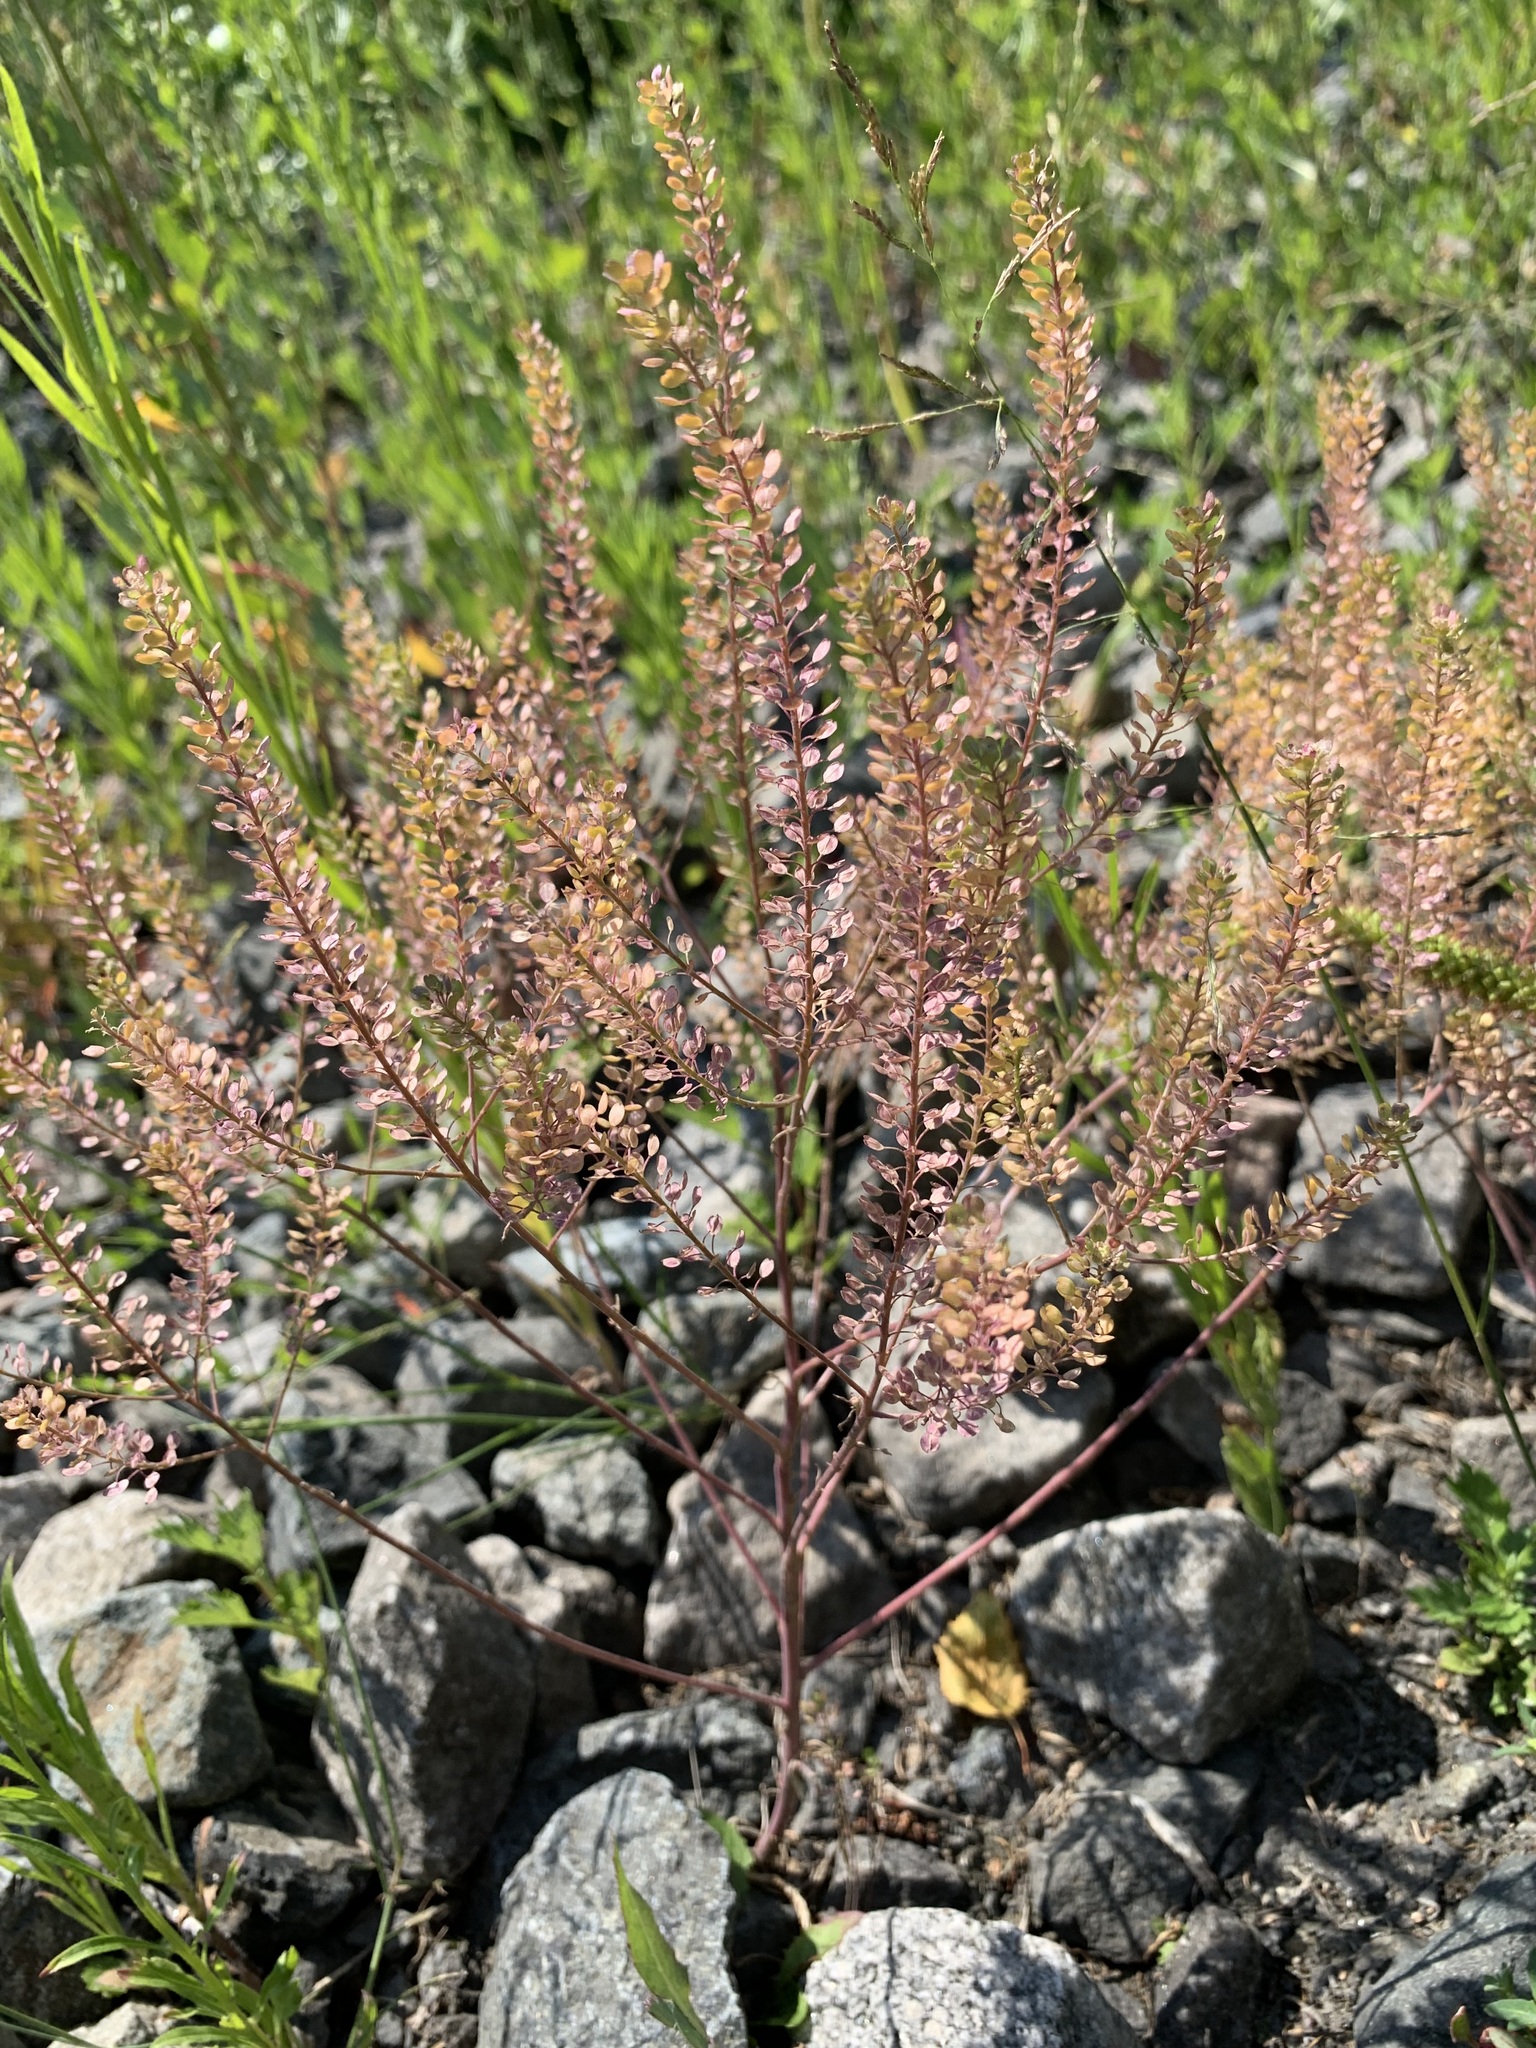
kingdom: Plantae
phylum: Tracheophyta
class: Magnoliopsida
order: Brassicales
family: Brassicaceae
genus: Lepidium
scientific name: Lepidium densiflorum
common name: Miner's pepperwort
